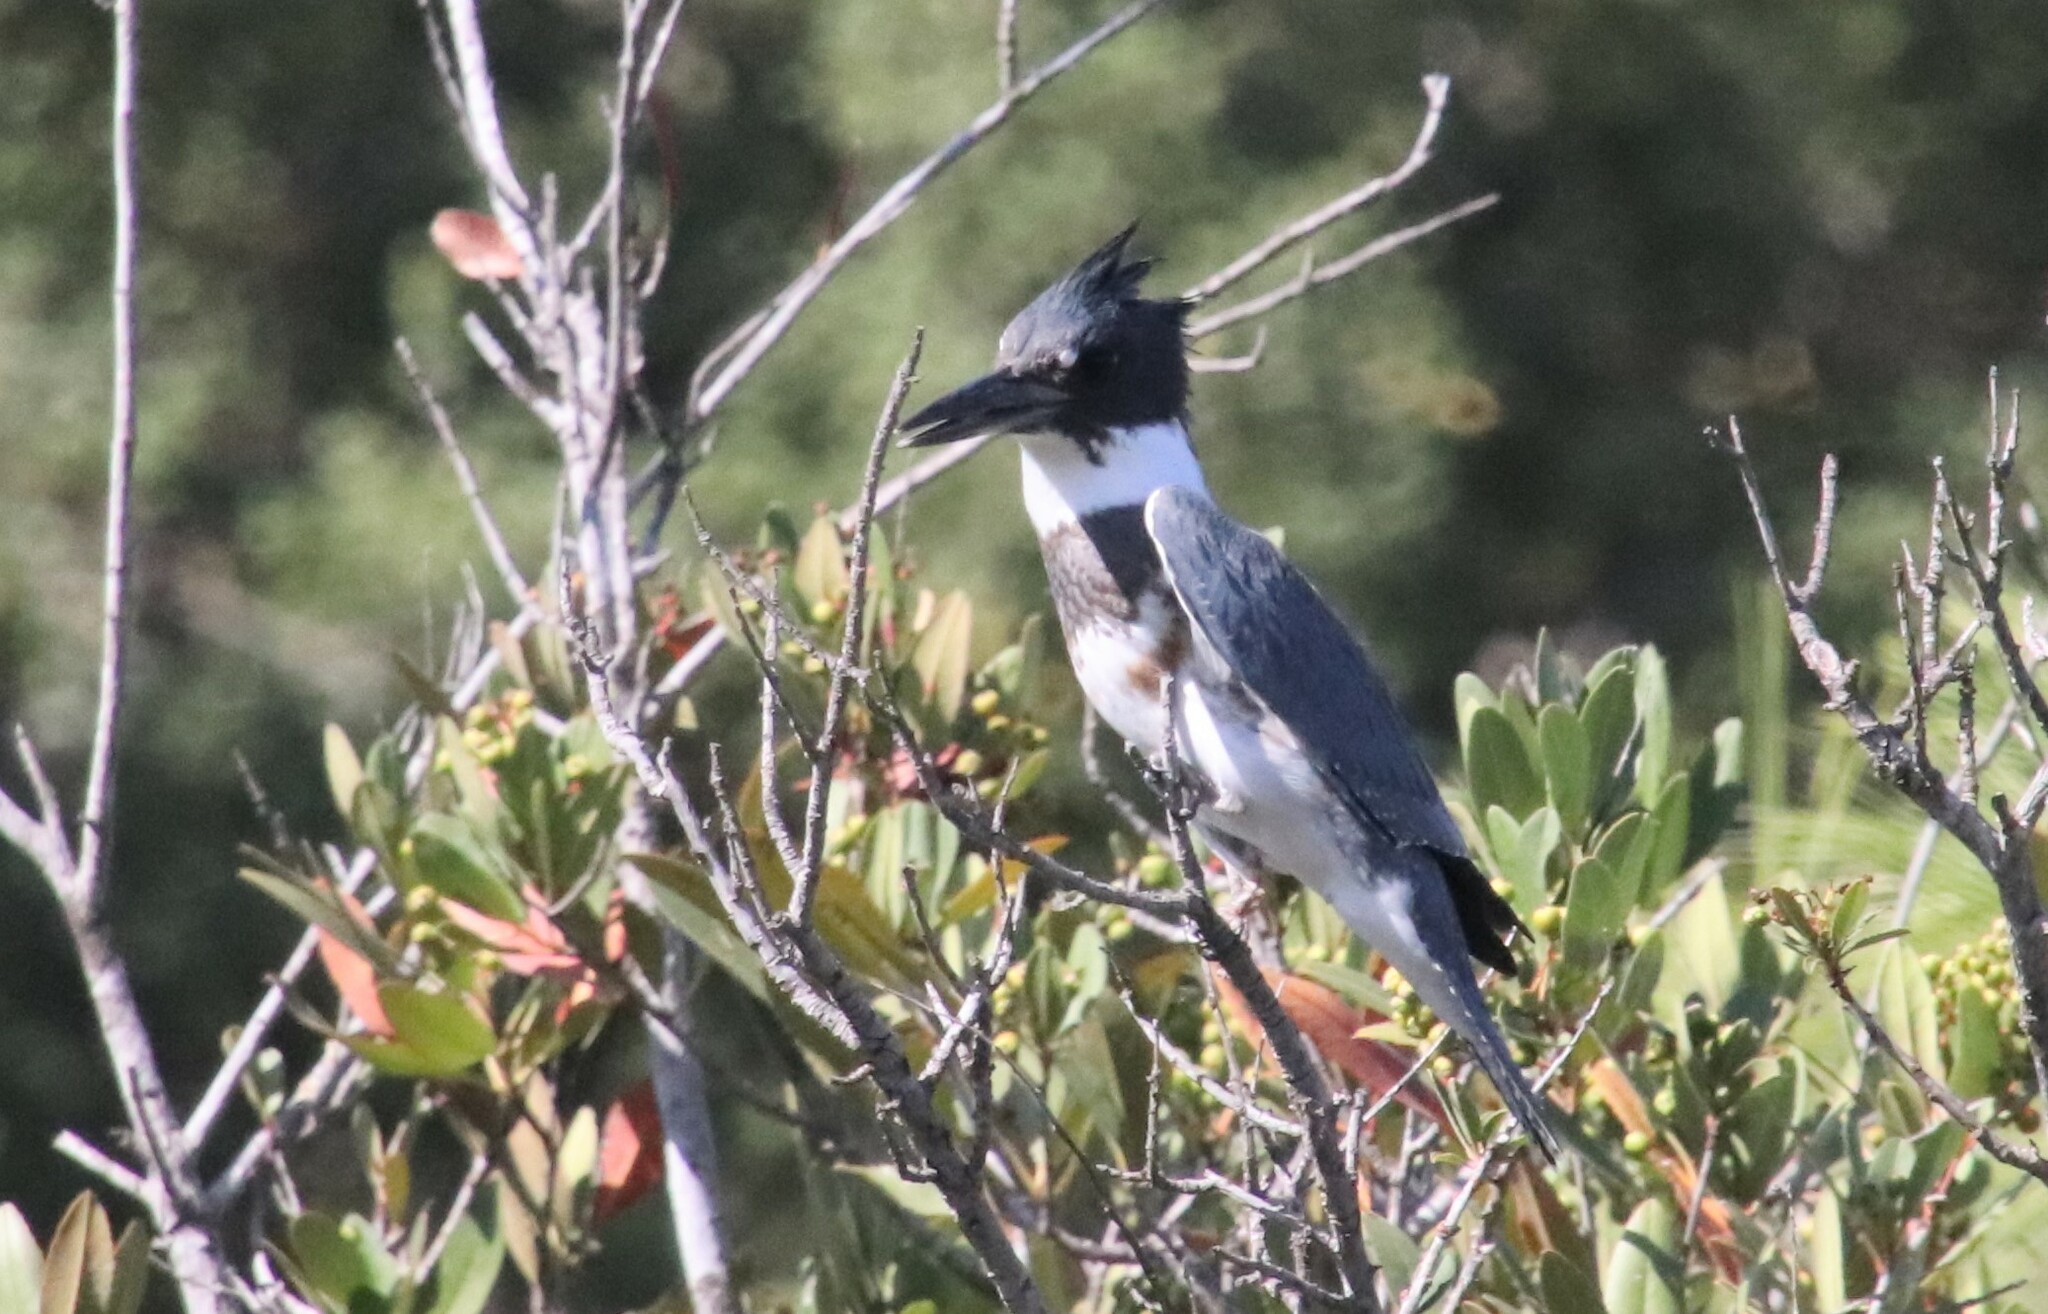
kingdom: Animalia
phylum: Chordata
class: Aves
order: Coraciiformes
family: Alcedinidae
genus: Megaceryle
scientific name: Megaceryle alcyon
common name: Belted kingfisher
